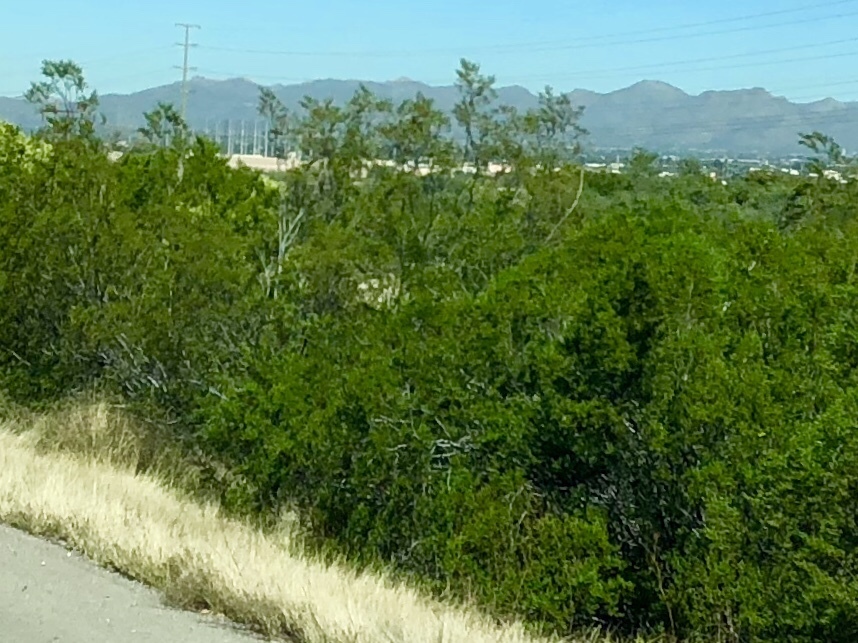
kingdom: Plantae
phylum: Tracheophyta
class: Magnoliopsida
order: Zygophyllales
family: Zygophyllaceae
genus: Larrea
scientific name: Larrea tridentata
